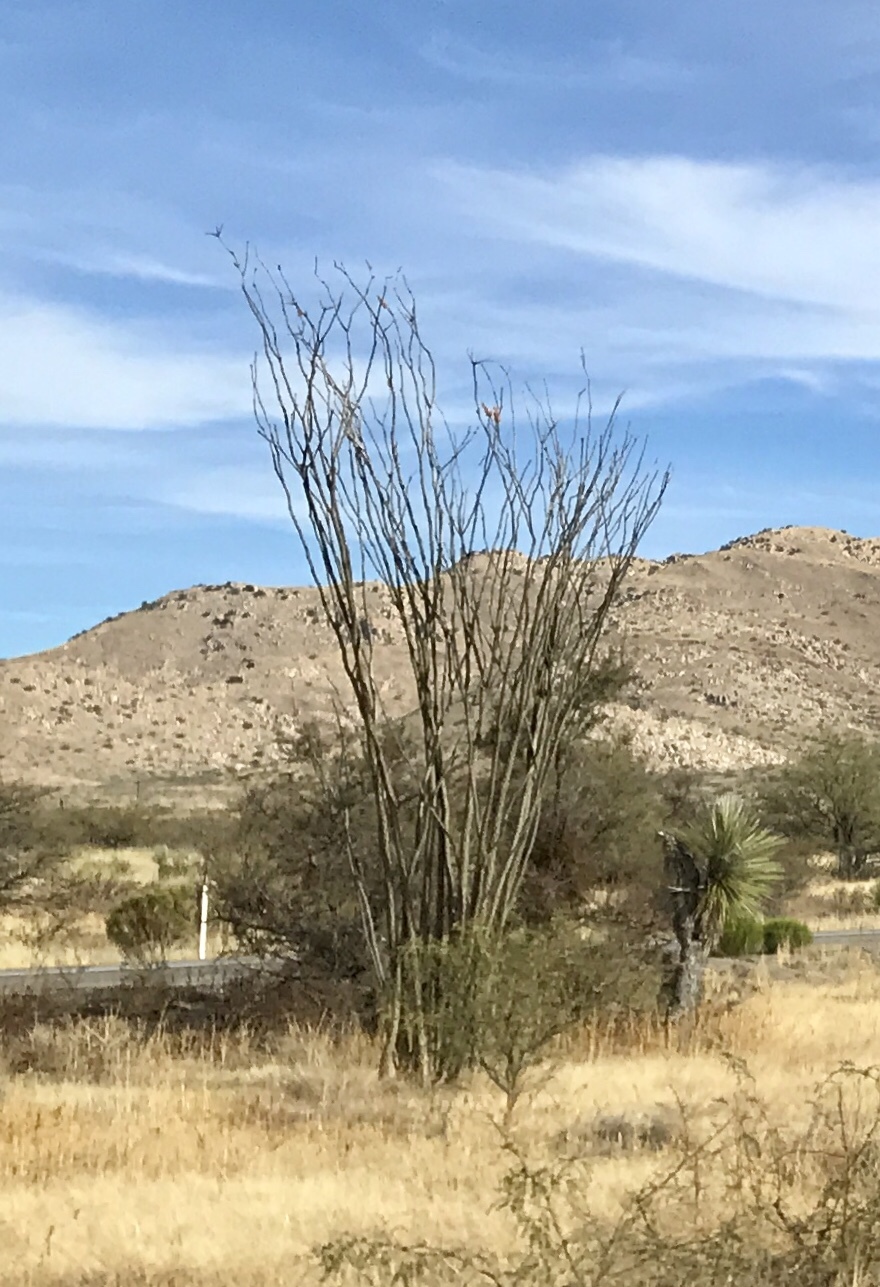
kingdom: Plantae
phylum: Tracheophyta
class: Magnoliopsida
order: Ericales
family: Fouquieriaceae
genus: Fouquieria
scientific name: Fouquieria splendens
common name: Vine-cactus
